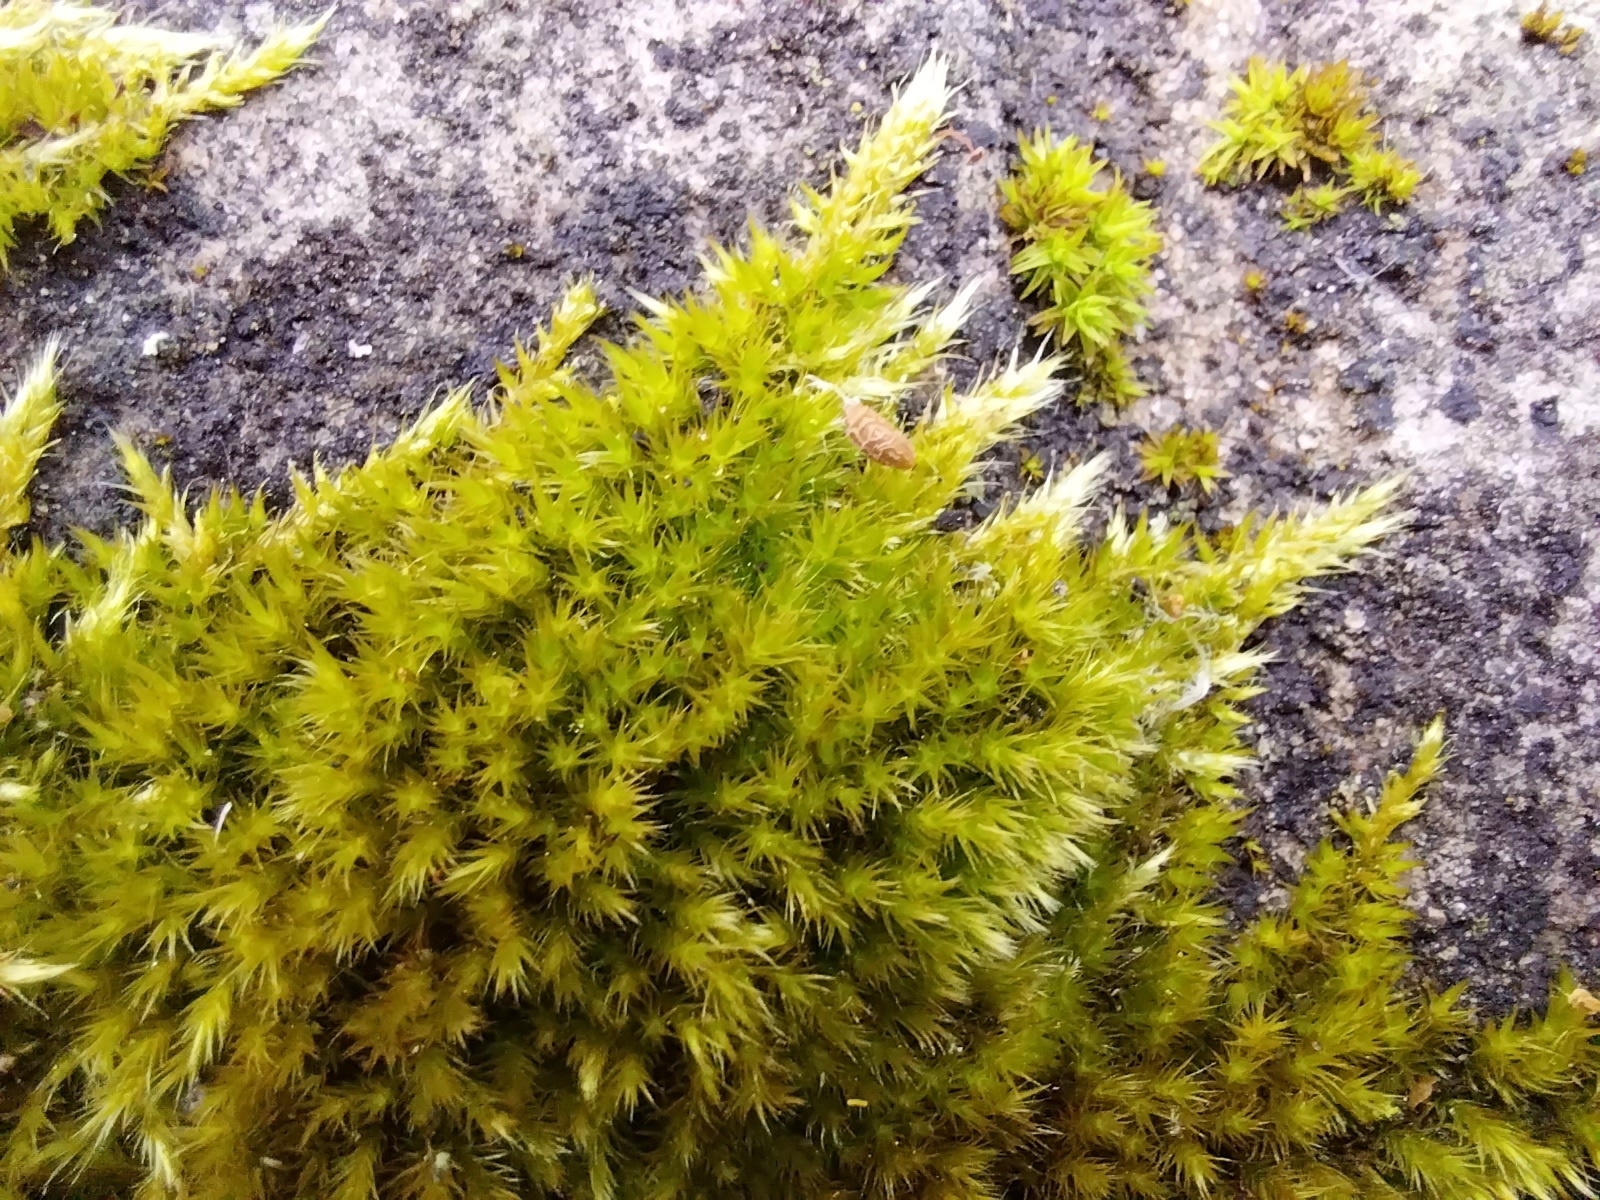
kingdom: Plantae
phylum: Bryophyta
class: Bryopsida
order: Hypnales
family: Brachytheciaceae
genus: Homalothecium
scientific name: Homalothecium sericeum
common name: Silky wall feather-moss
